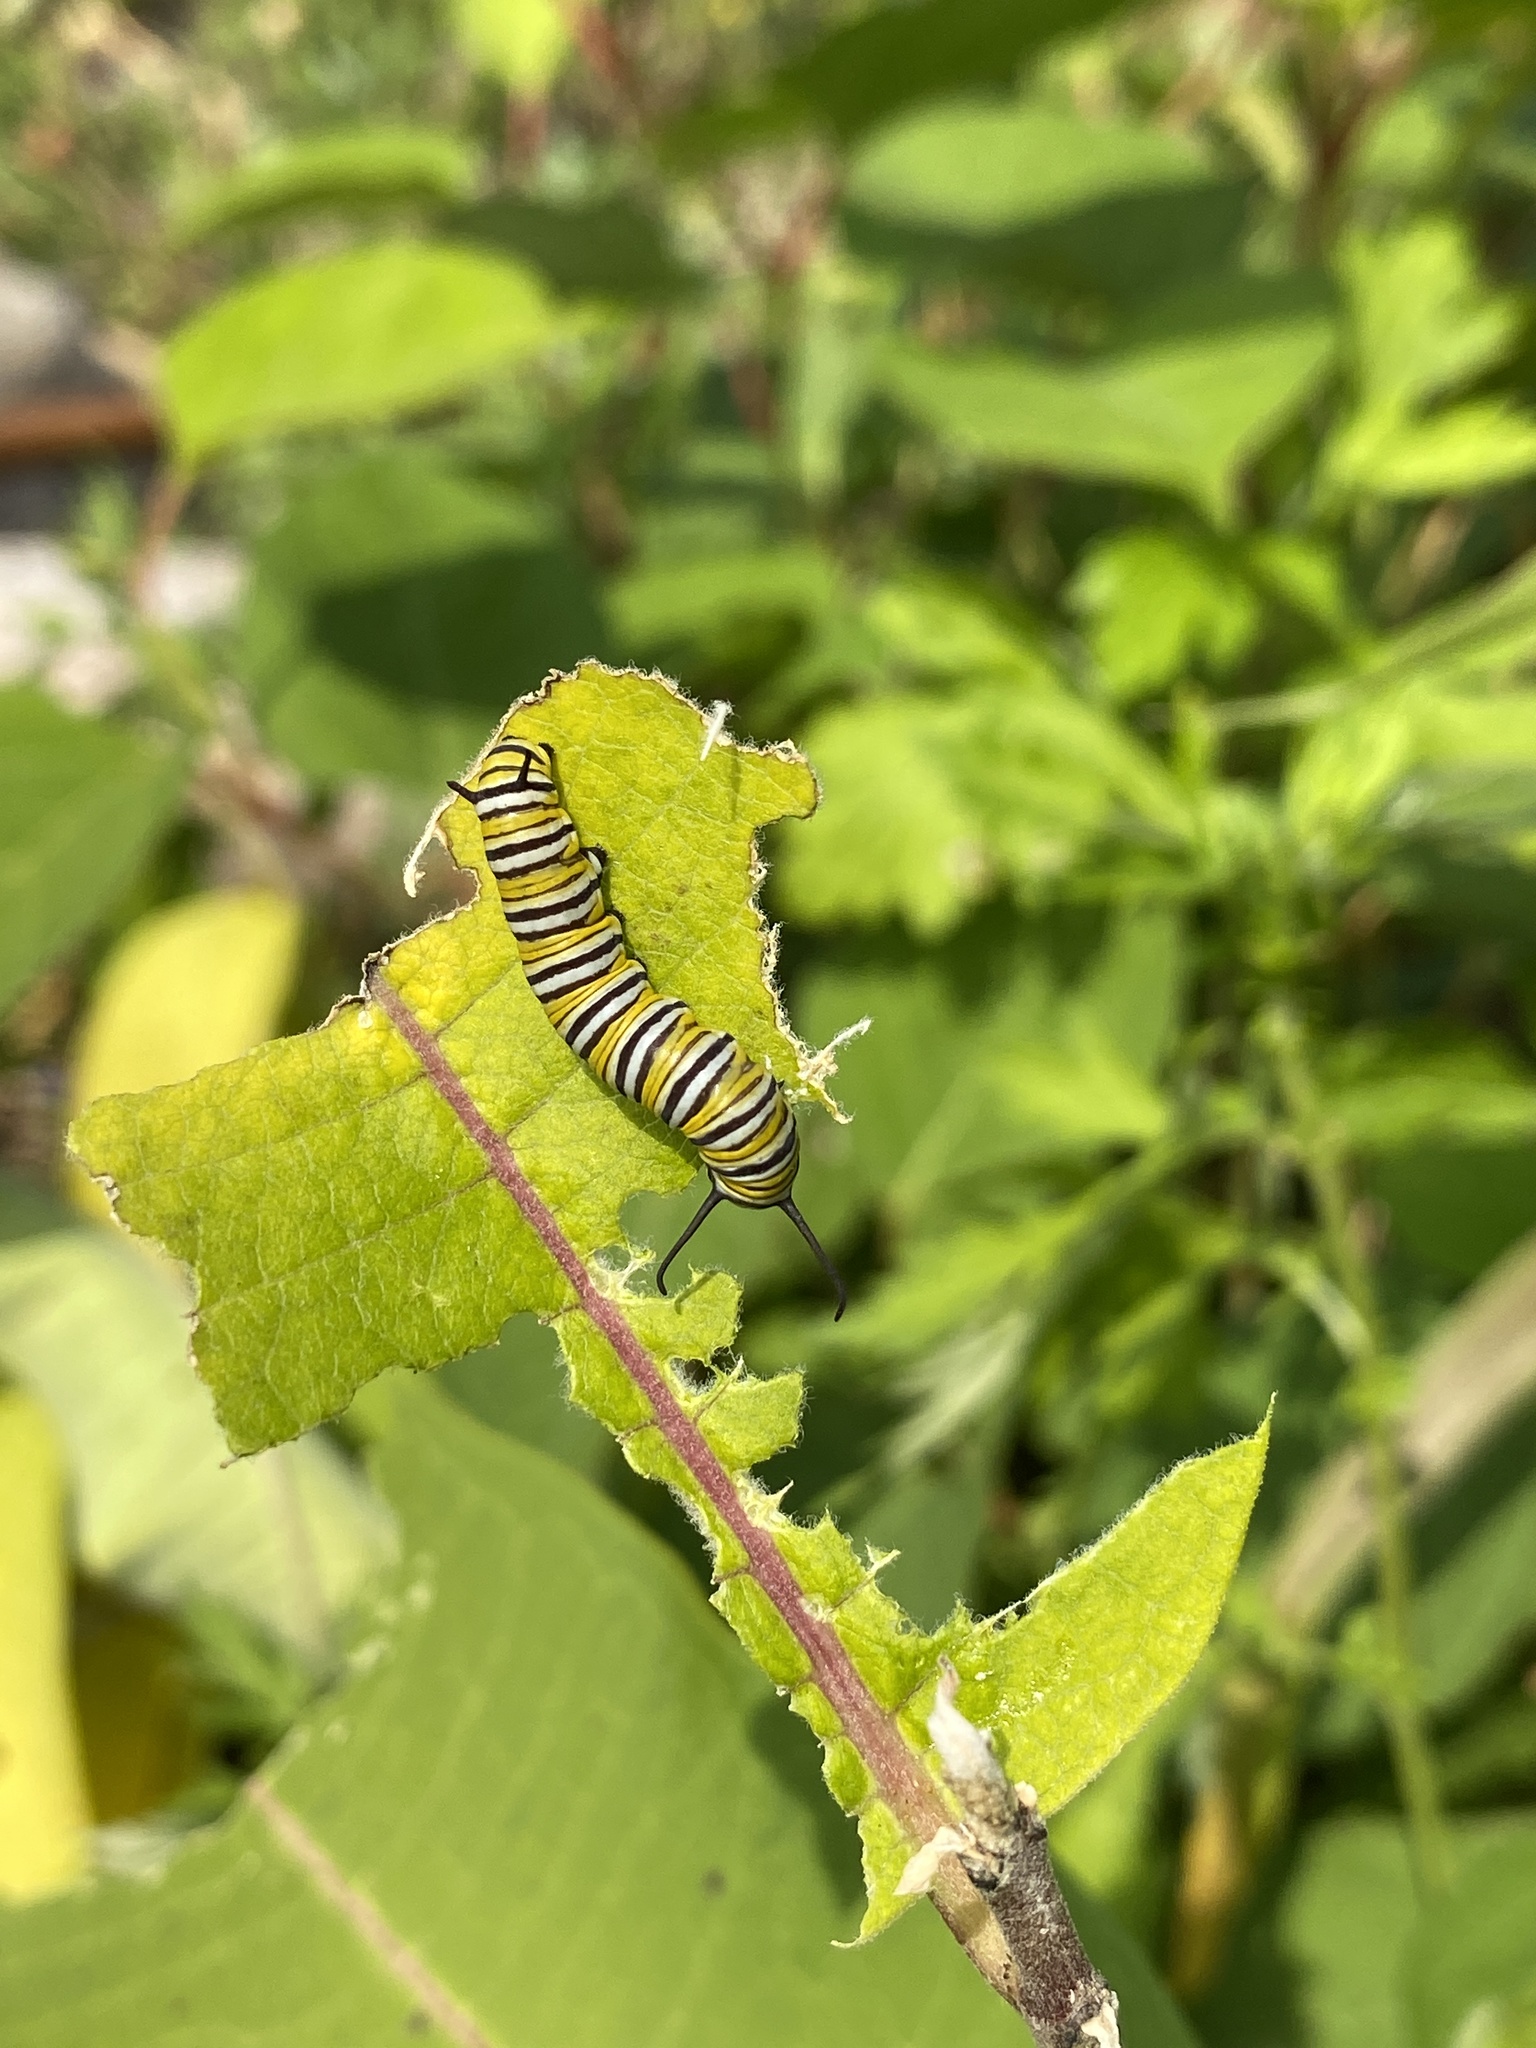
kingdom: Animalia
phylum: Arthropoda
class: Insecta
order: Lepidoptera
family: Nymphalidae
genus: Danaus
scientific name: Danaus plexippus
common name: Monarch
